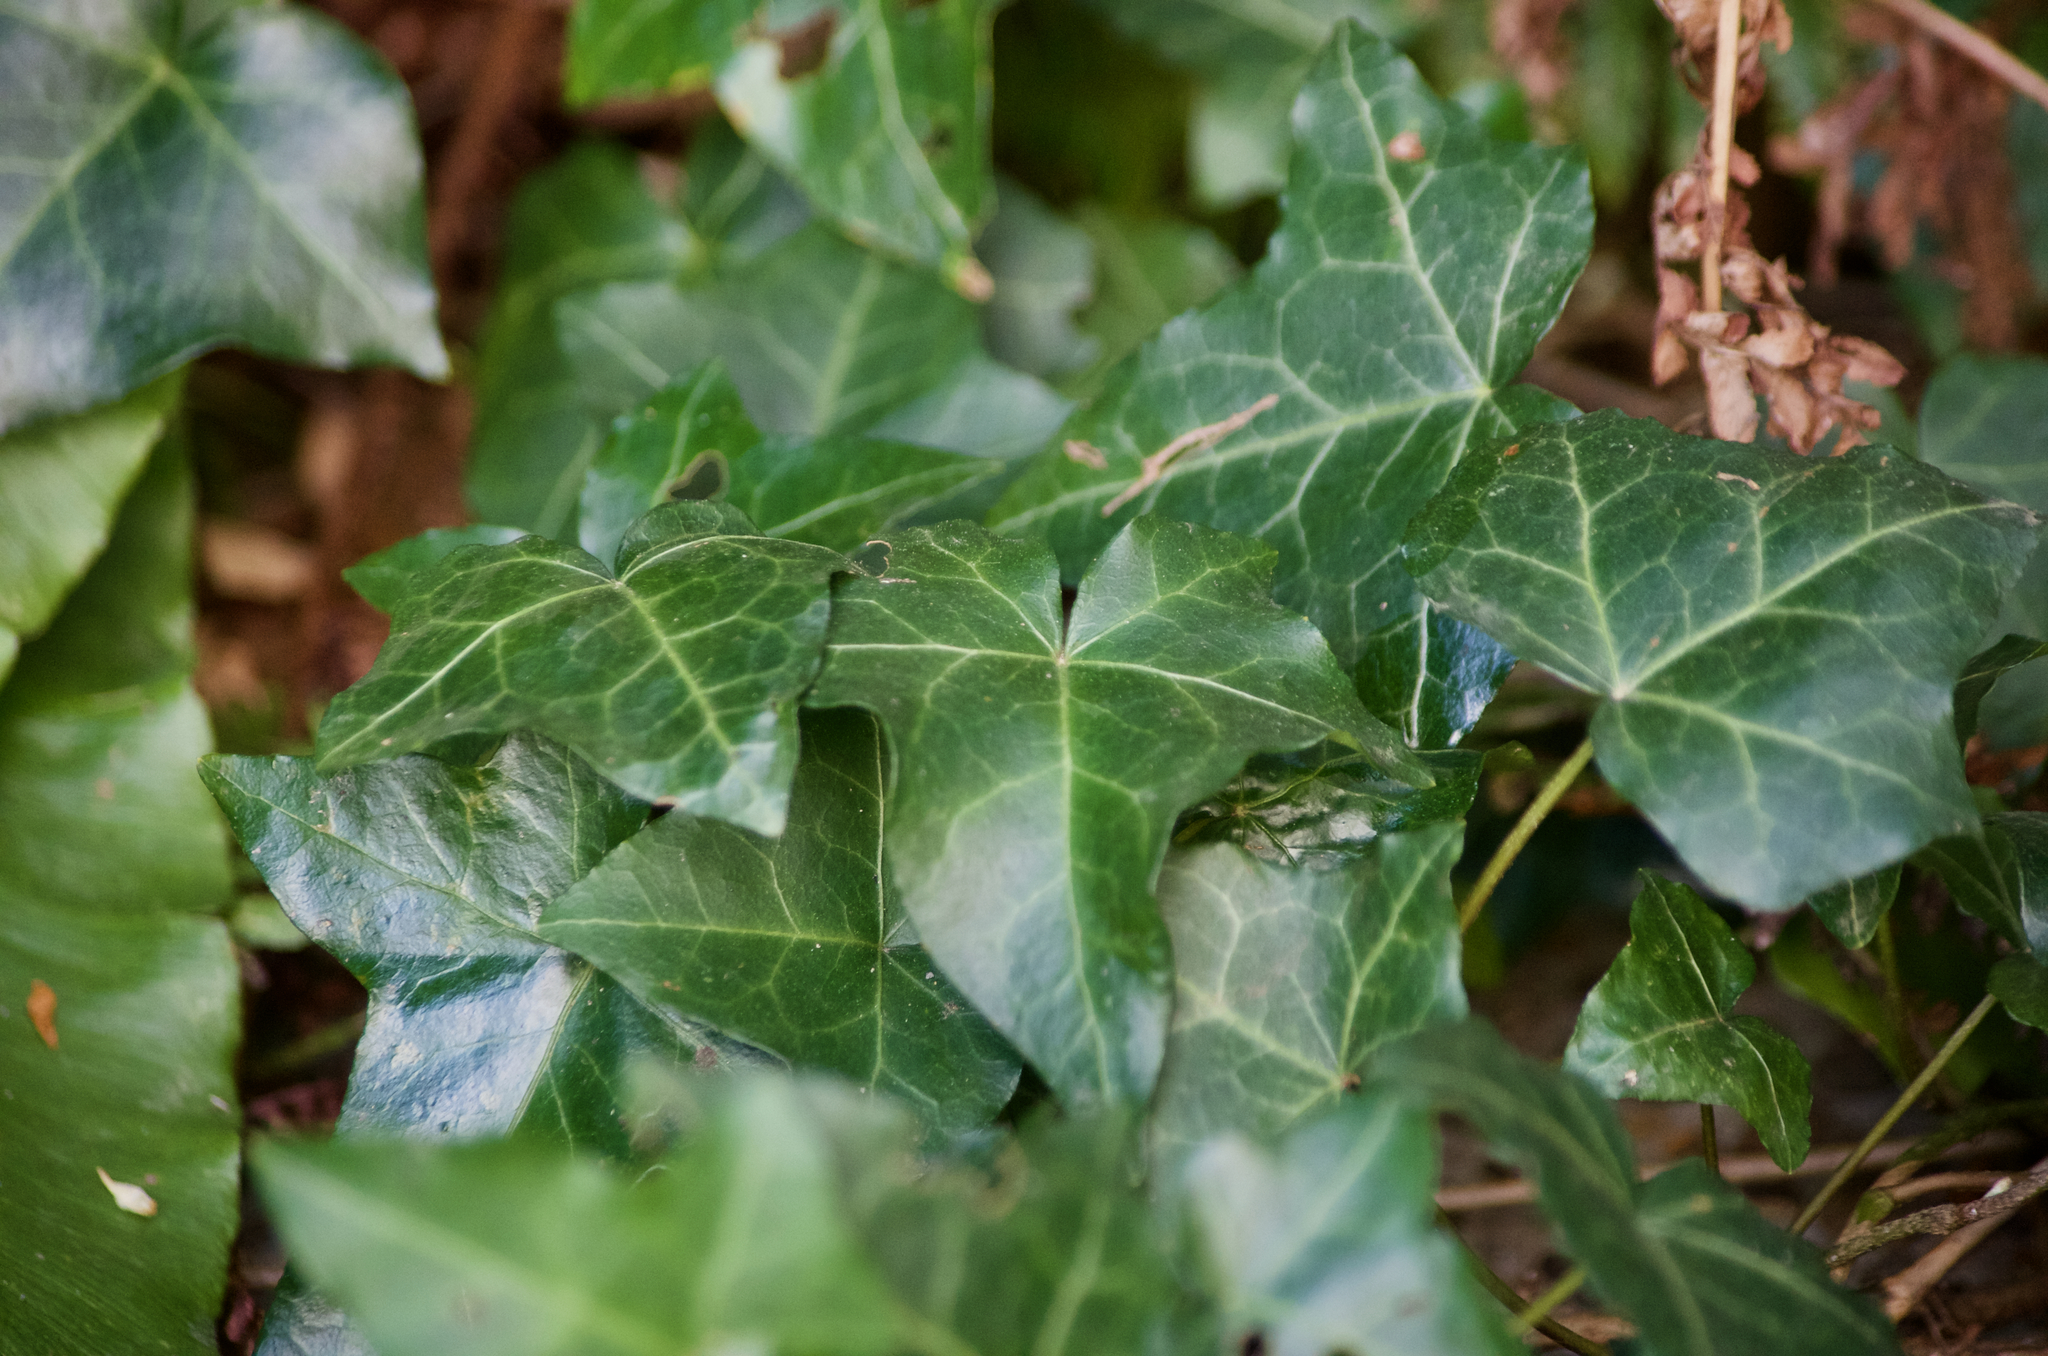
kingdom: Plantae
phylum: Tracheophyta
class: Magnoliopsida
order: Apiales
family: Araliaceae
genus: Hedera
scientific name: Hedera helix
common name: Ivy
